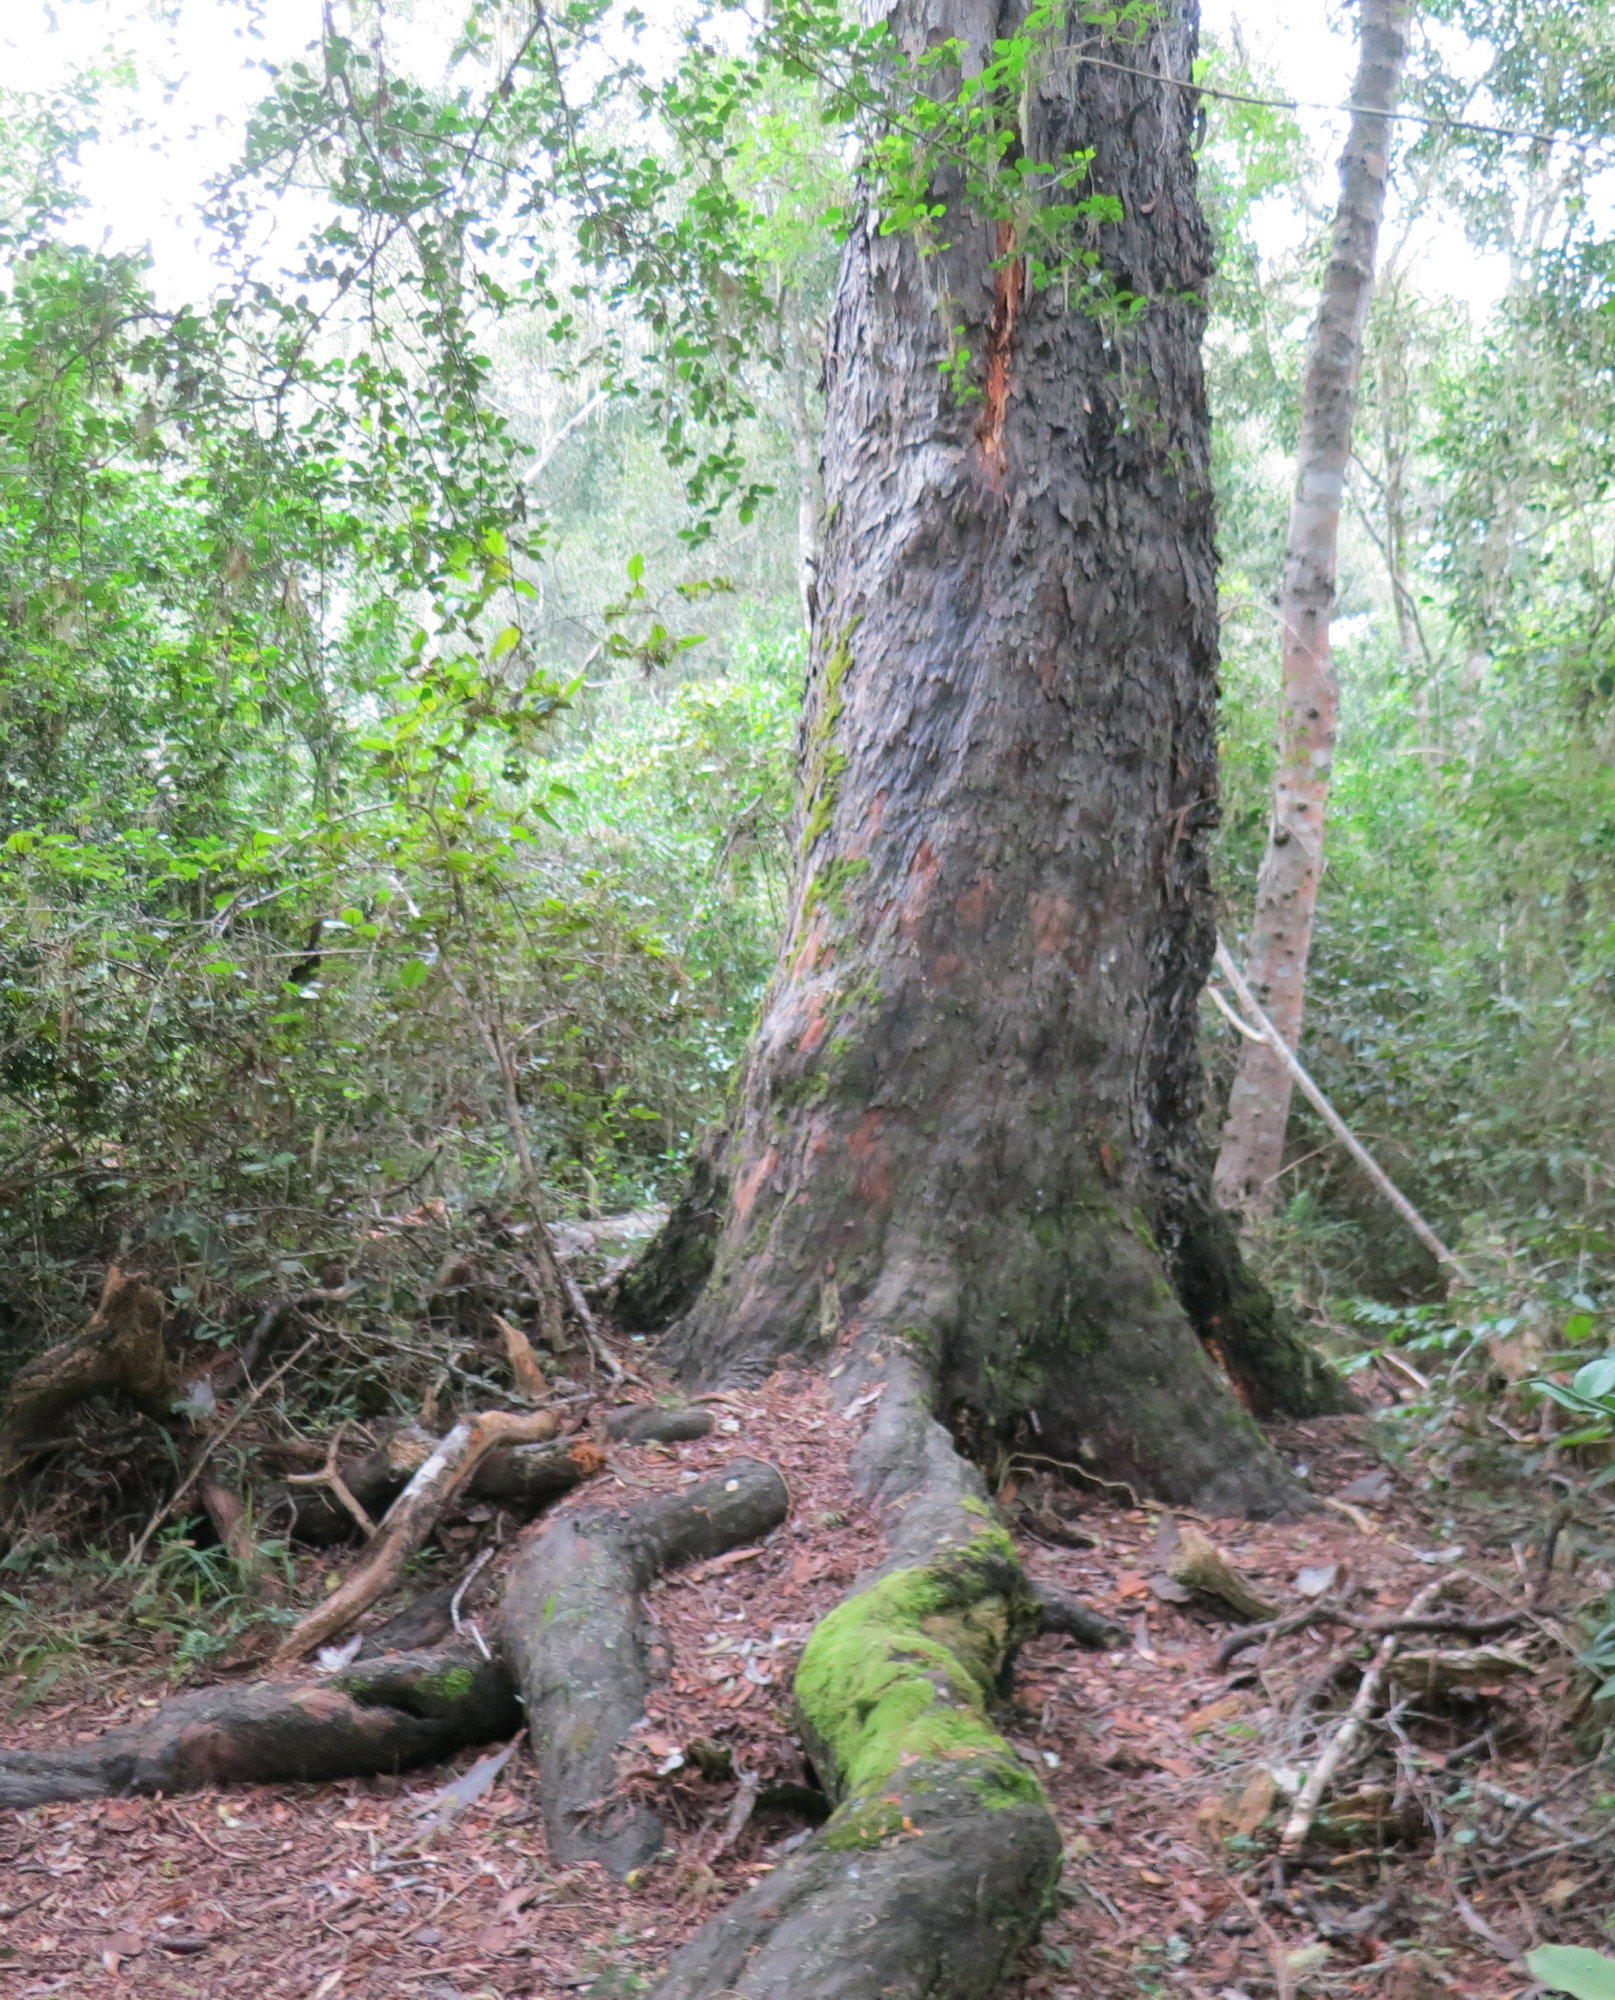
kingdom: Plantae
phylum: Tracheophyta
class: Pinopsida
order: Pinales
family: Podocarpaceae
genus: Afrocarpus
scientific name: Afrocarpus falcatus
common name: Bastard yellowwood
